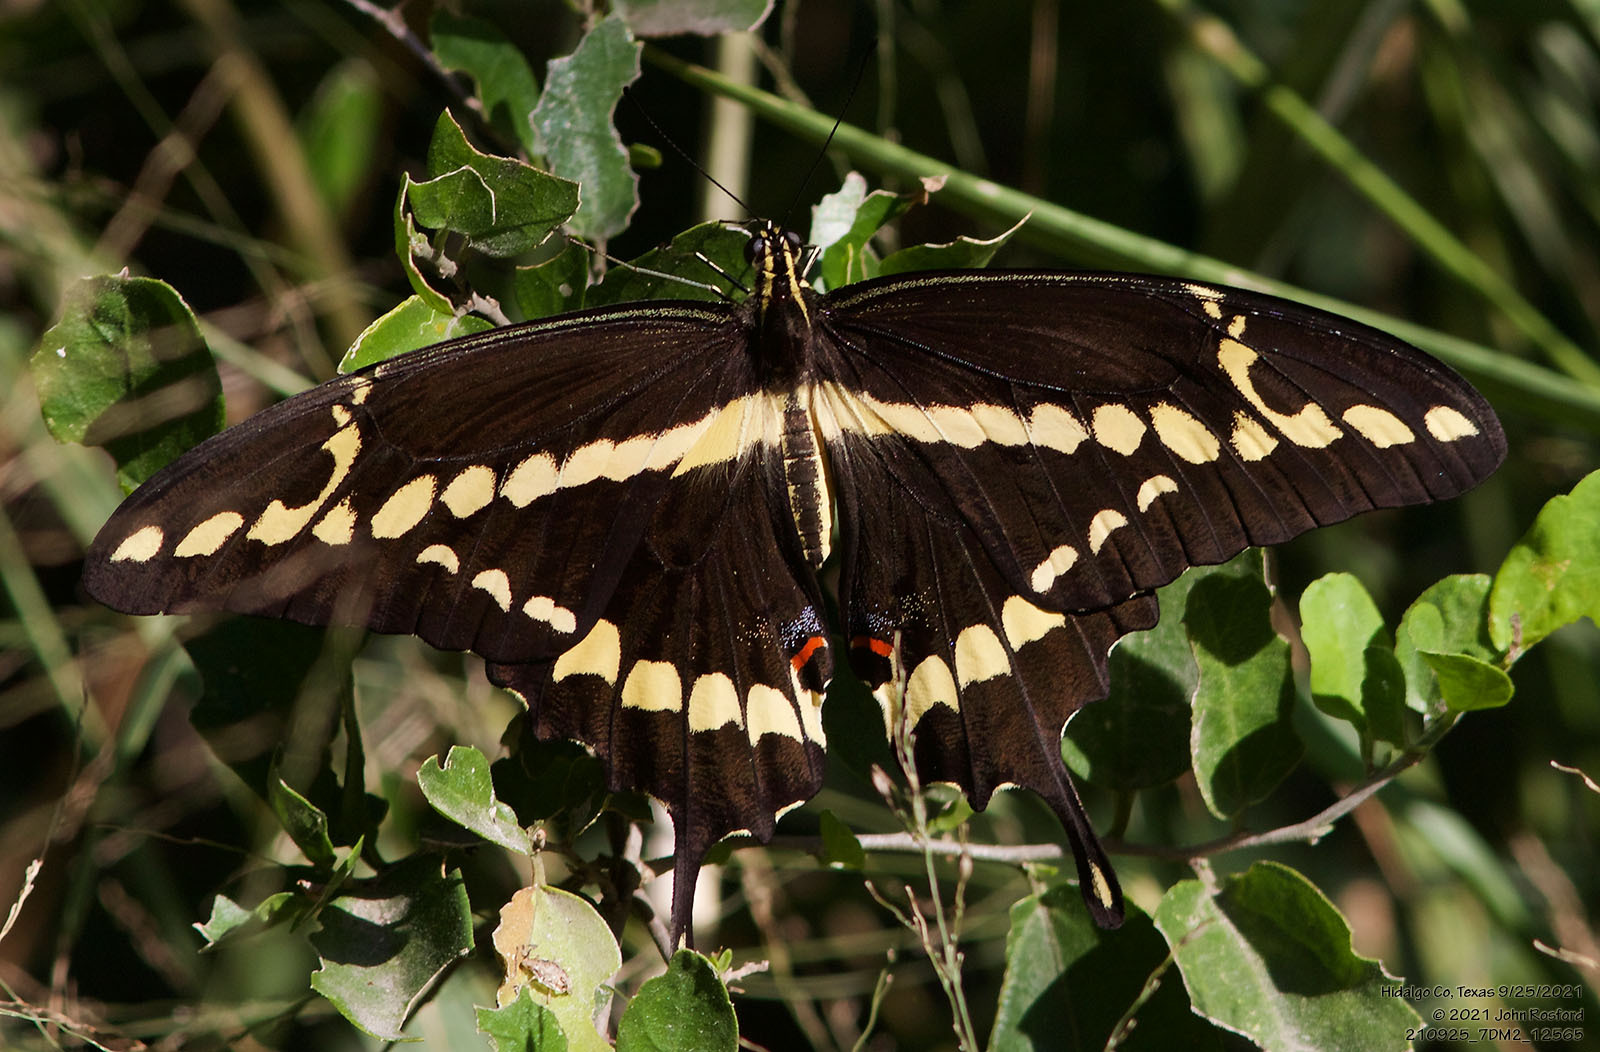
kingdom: Animalia
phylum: Arthropoda
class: Insecta
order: Lepidoptera
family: Papilionidae
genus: Papilio
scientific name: Papilio rumiko
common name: Western giant swallowtail
